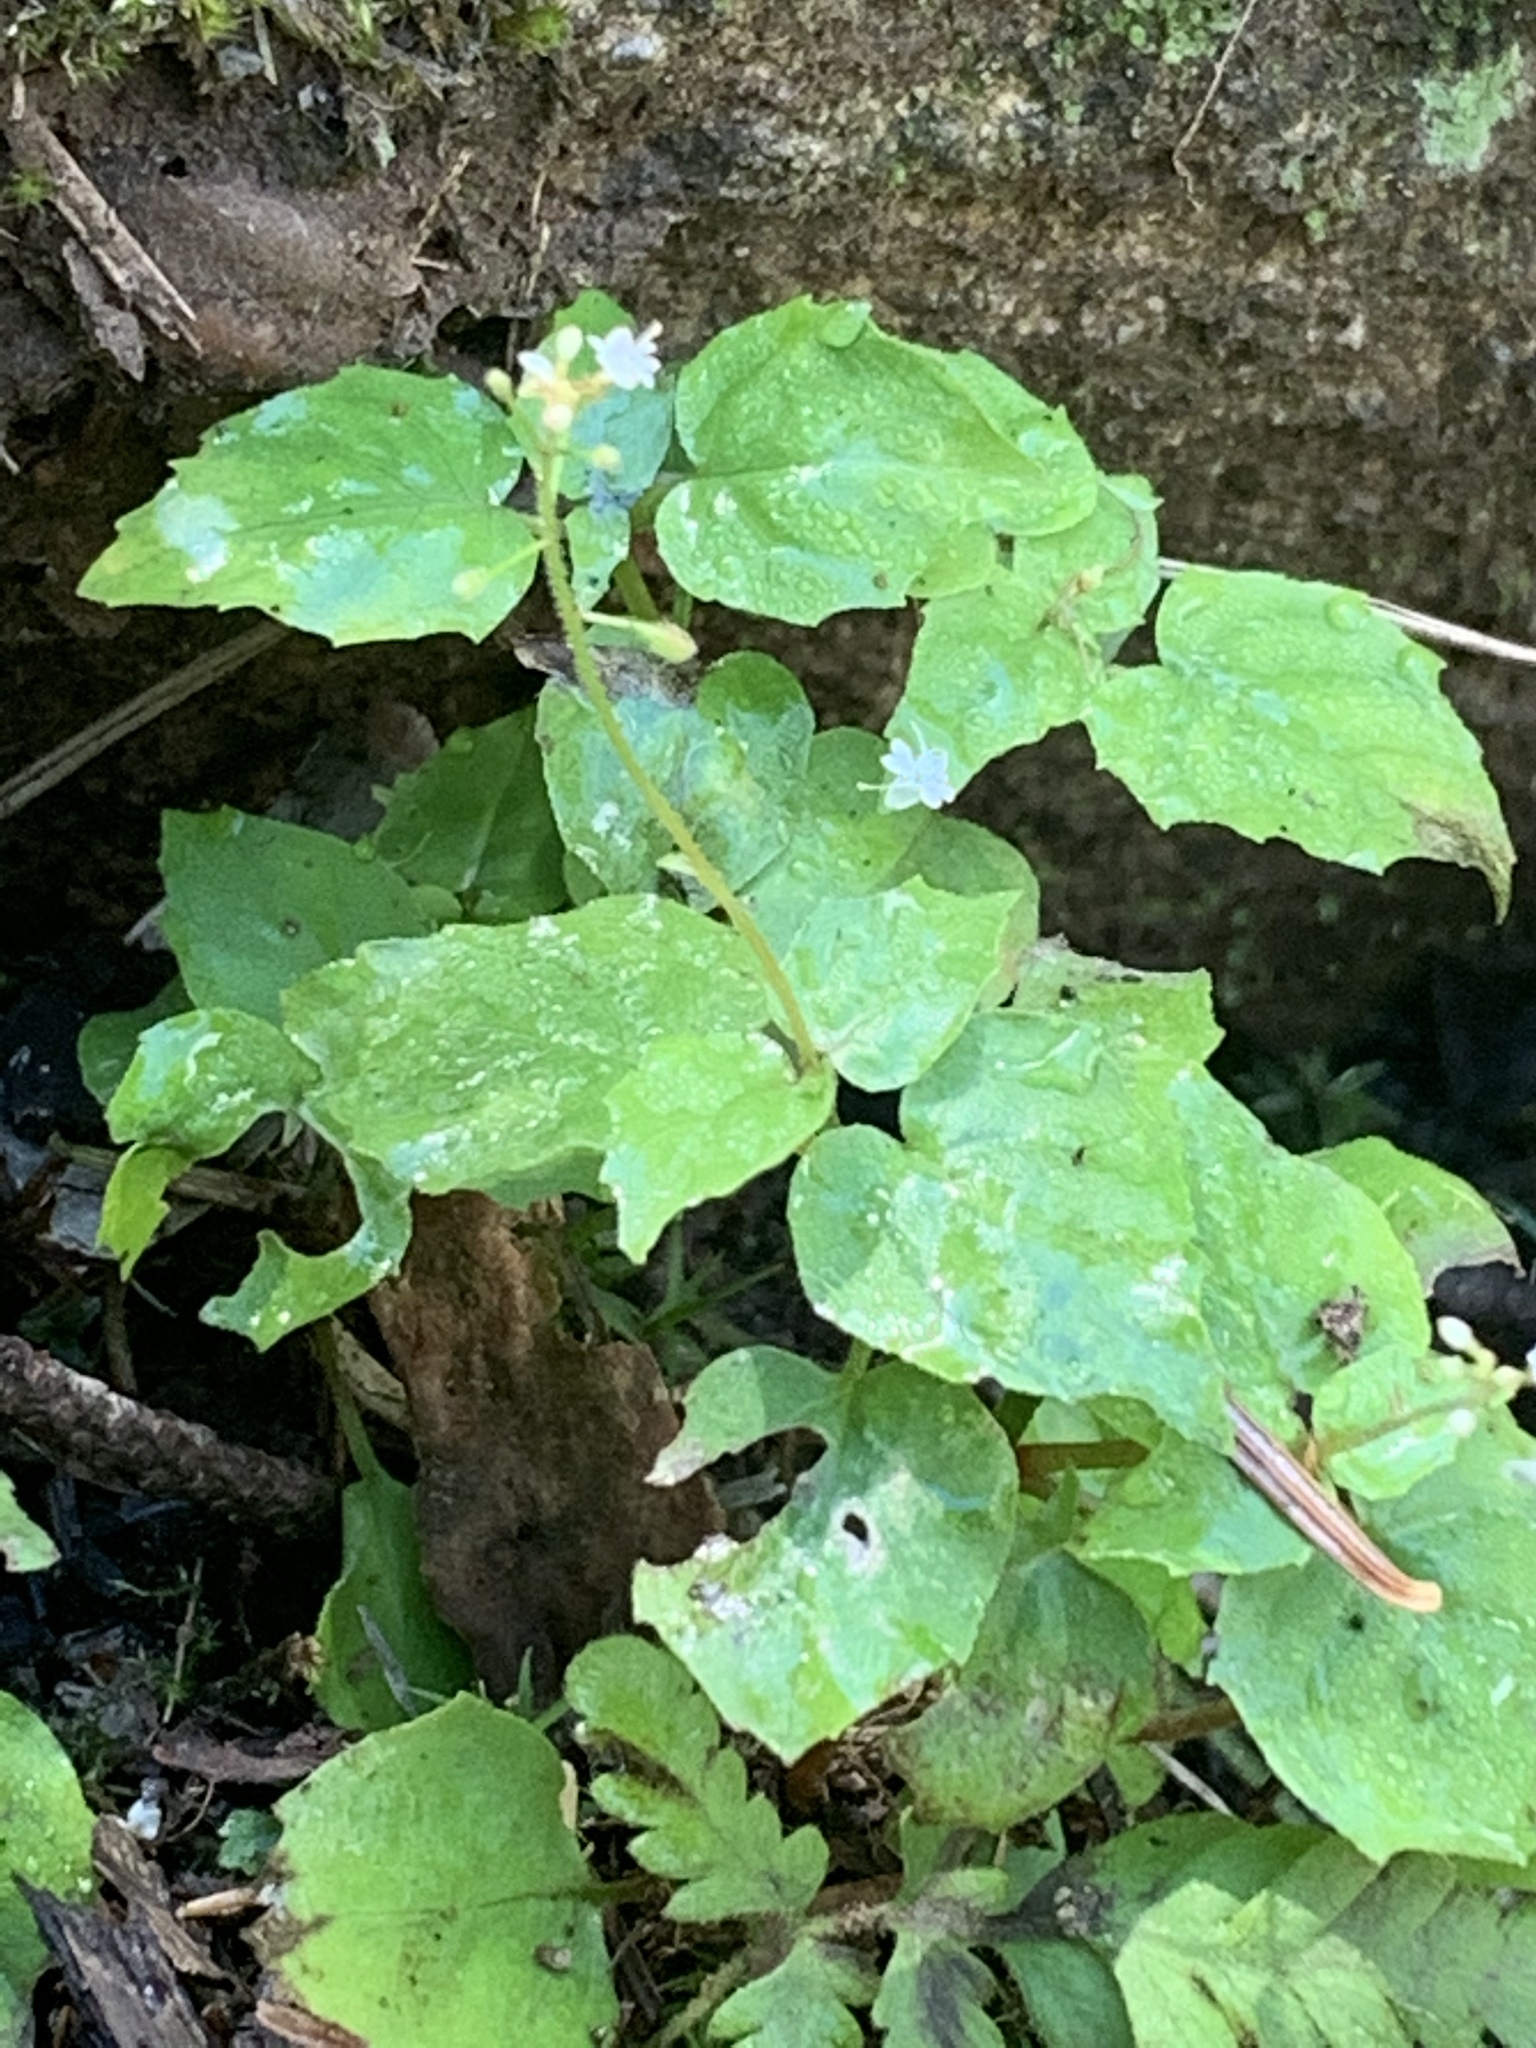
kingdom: Plantae
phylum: Tracheophyta
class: Magnoliopsida
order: Myrtales
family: Onagraceae
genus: Circaea
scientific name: Circaea alpina
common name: Alpine enchanter's-nightshade
